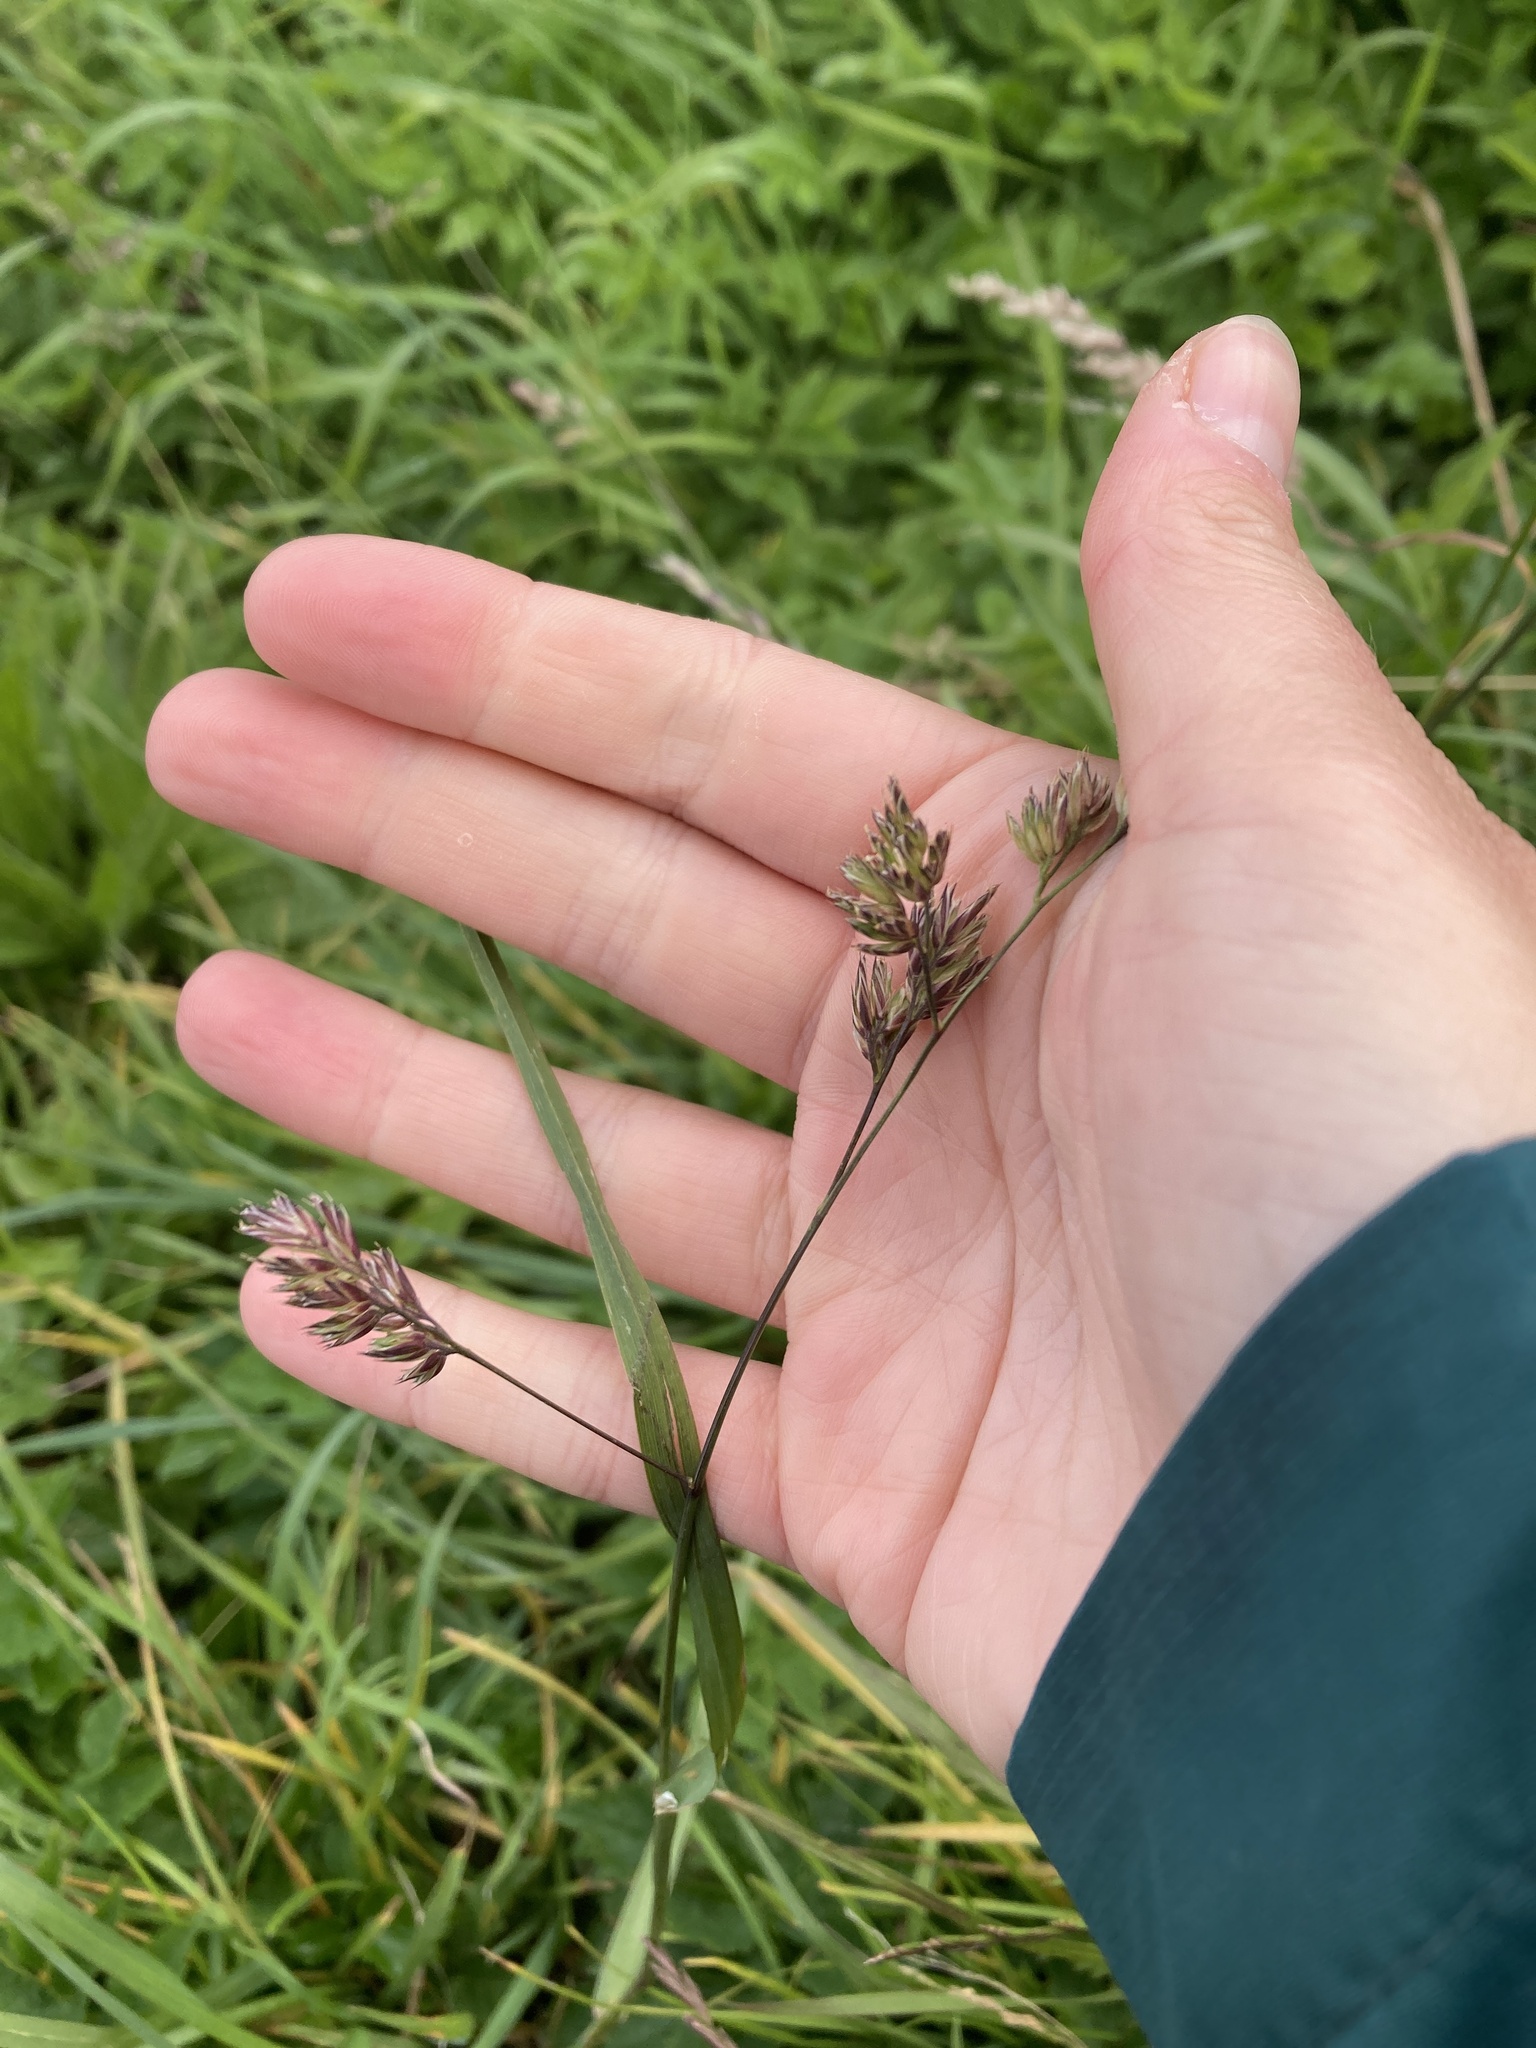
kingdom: Plantae
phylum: Tracheophyta
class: Liliopsida
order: Poales
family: Poaceae
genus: Dactylis
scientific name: Dactylis glomerata
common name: Orchardgrass
